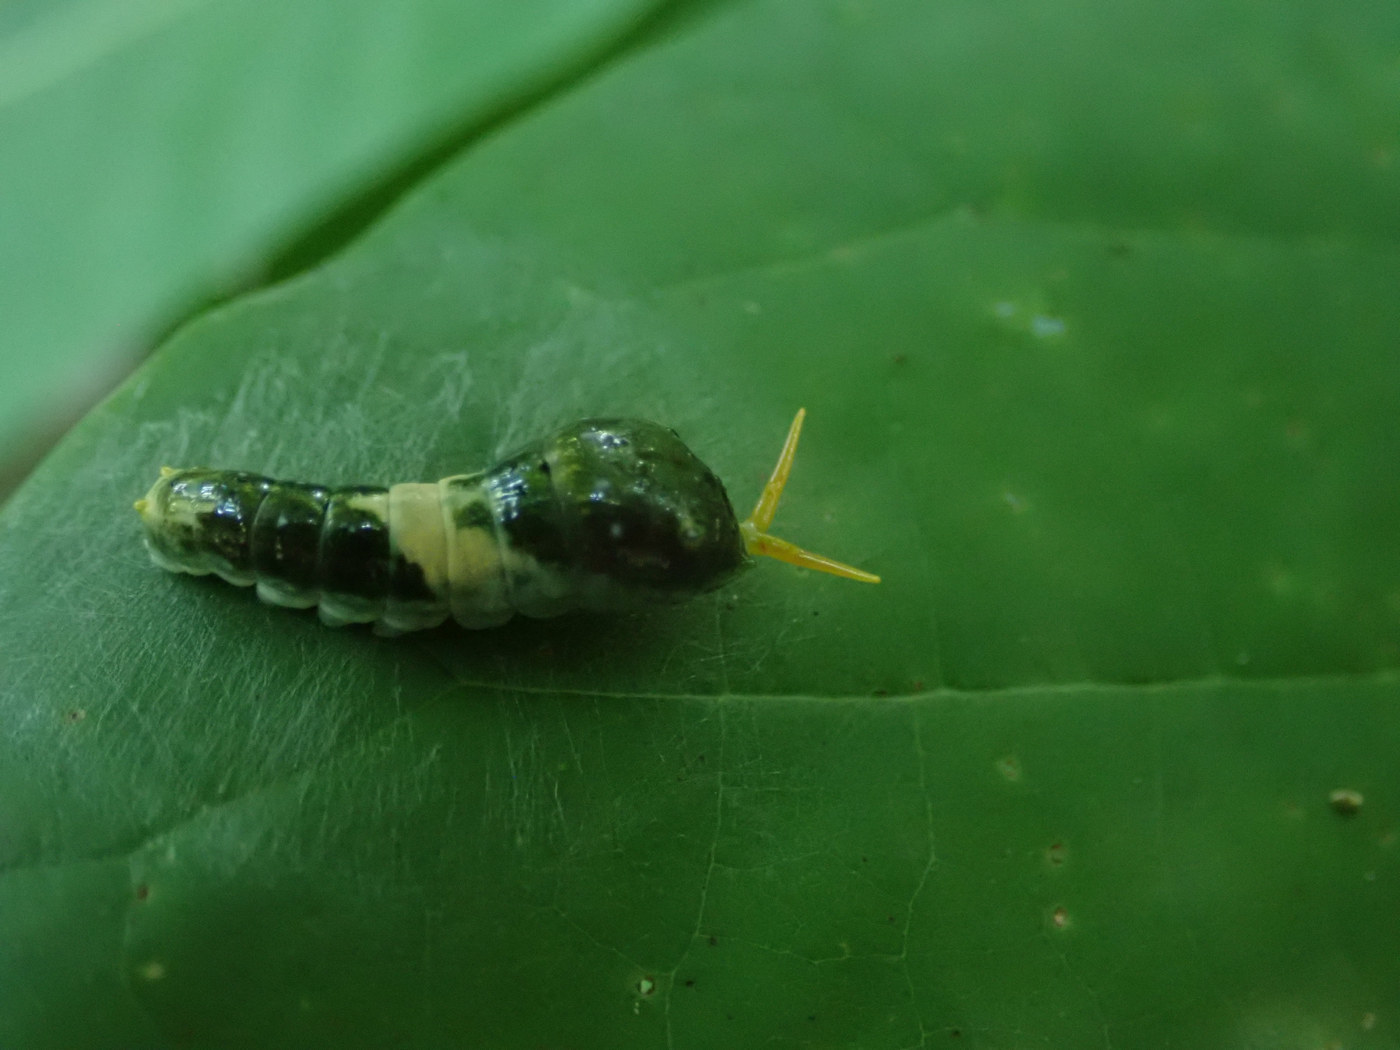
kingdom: Animalia
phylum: Arthropoda
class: Insecta
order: Lepidoptera
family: Papilionidae
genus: Papilio
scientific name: Papilio glaucus
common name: Tiger swallowtail
